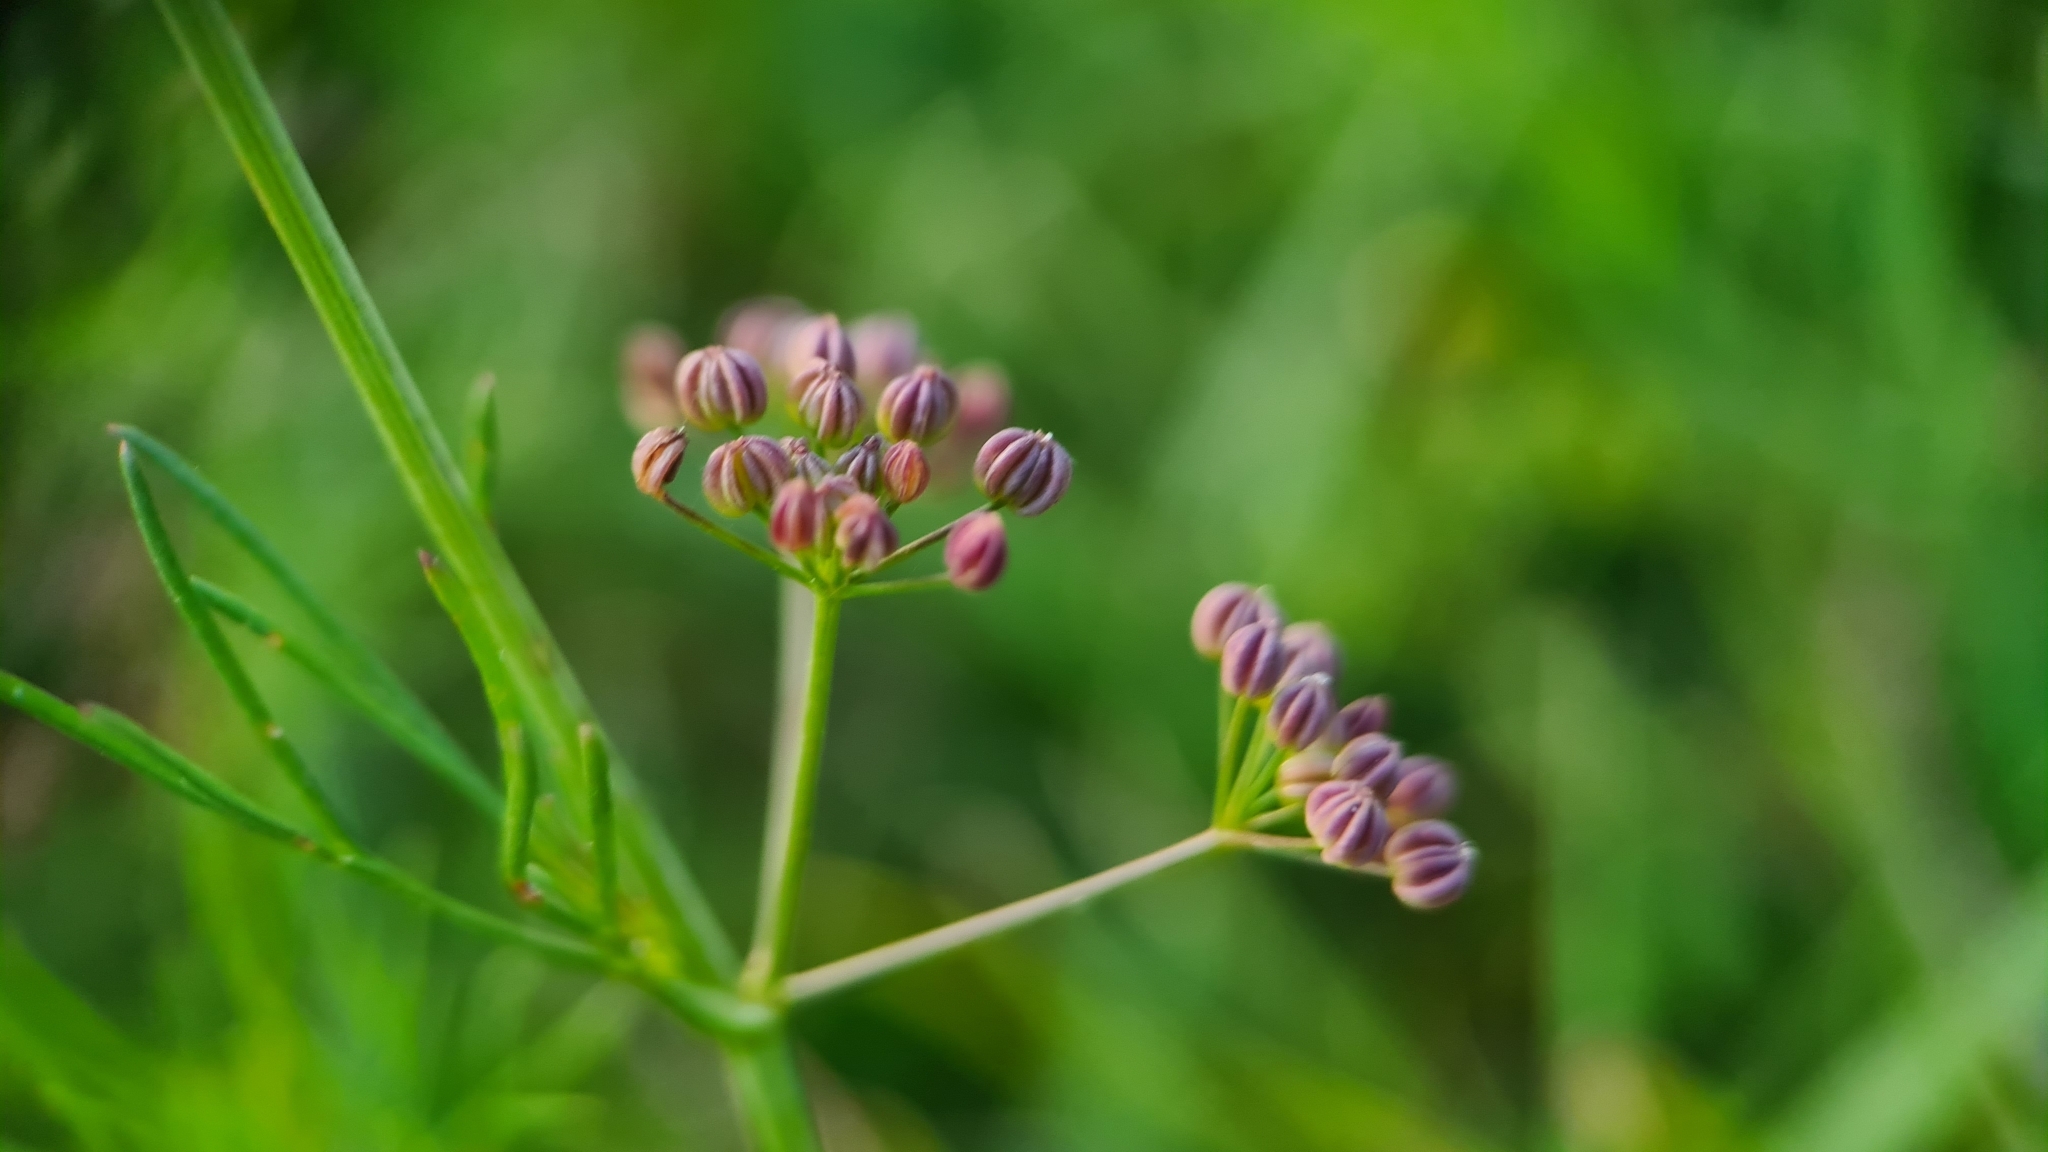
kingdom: Plantae
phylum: Tracheophyta
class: Magnoliopsida
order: Apiales
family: Apiaceae
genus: Cyclospermum
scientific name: Cyclospermum leptophyllum
